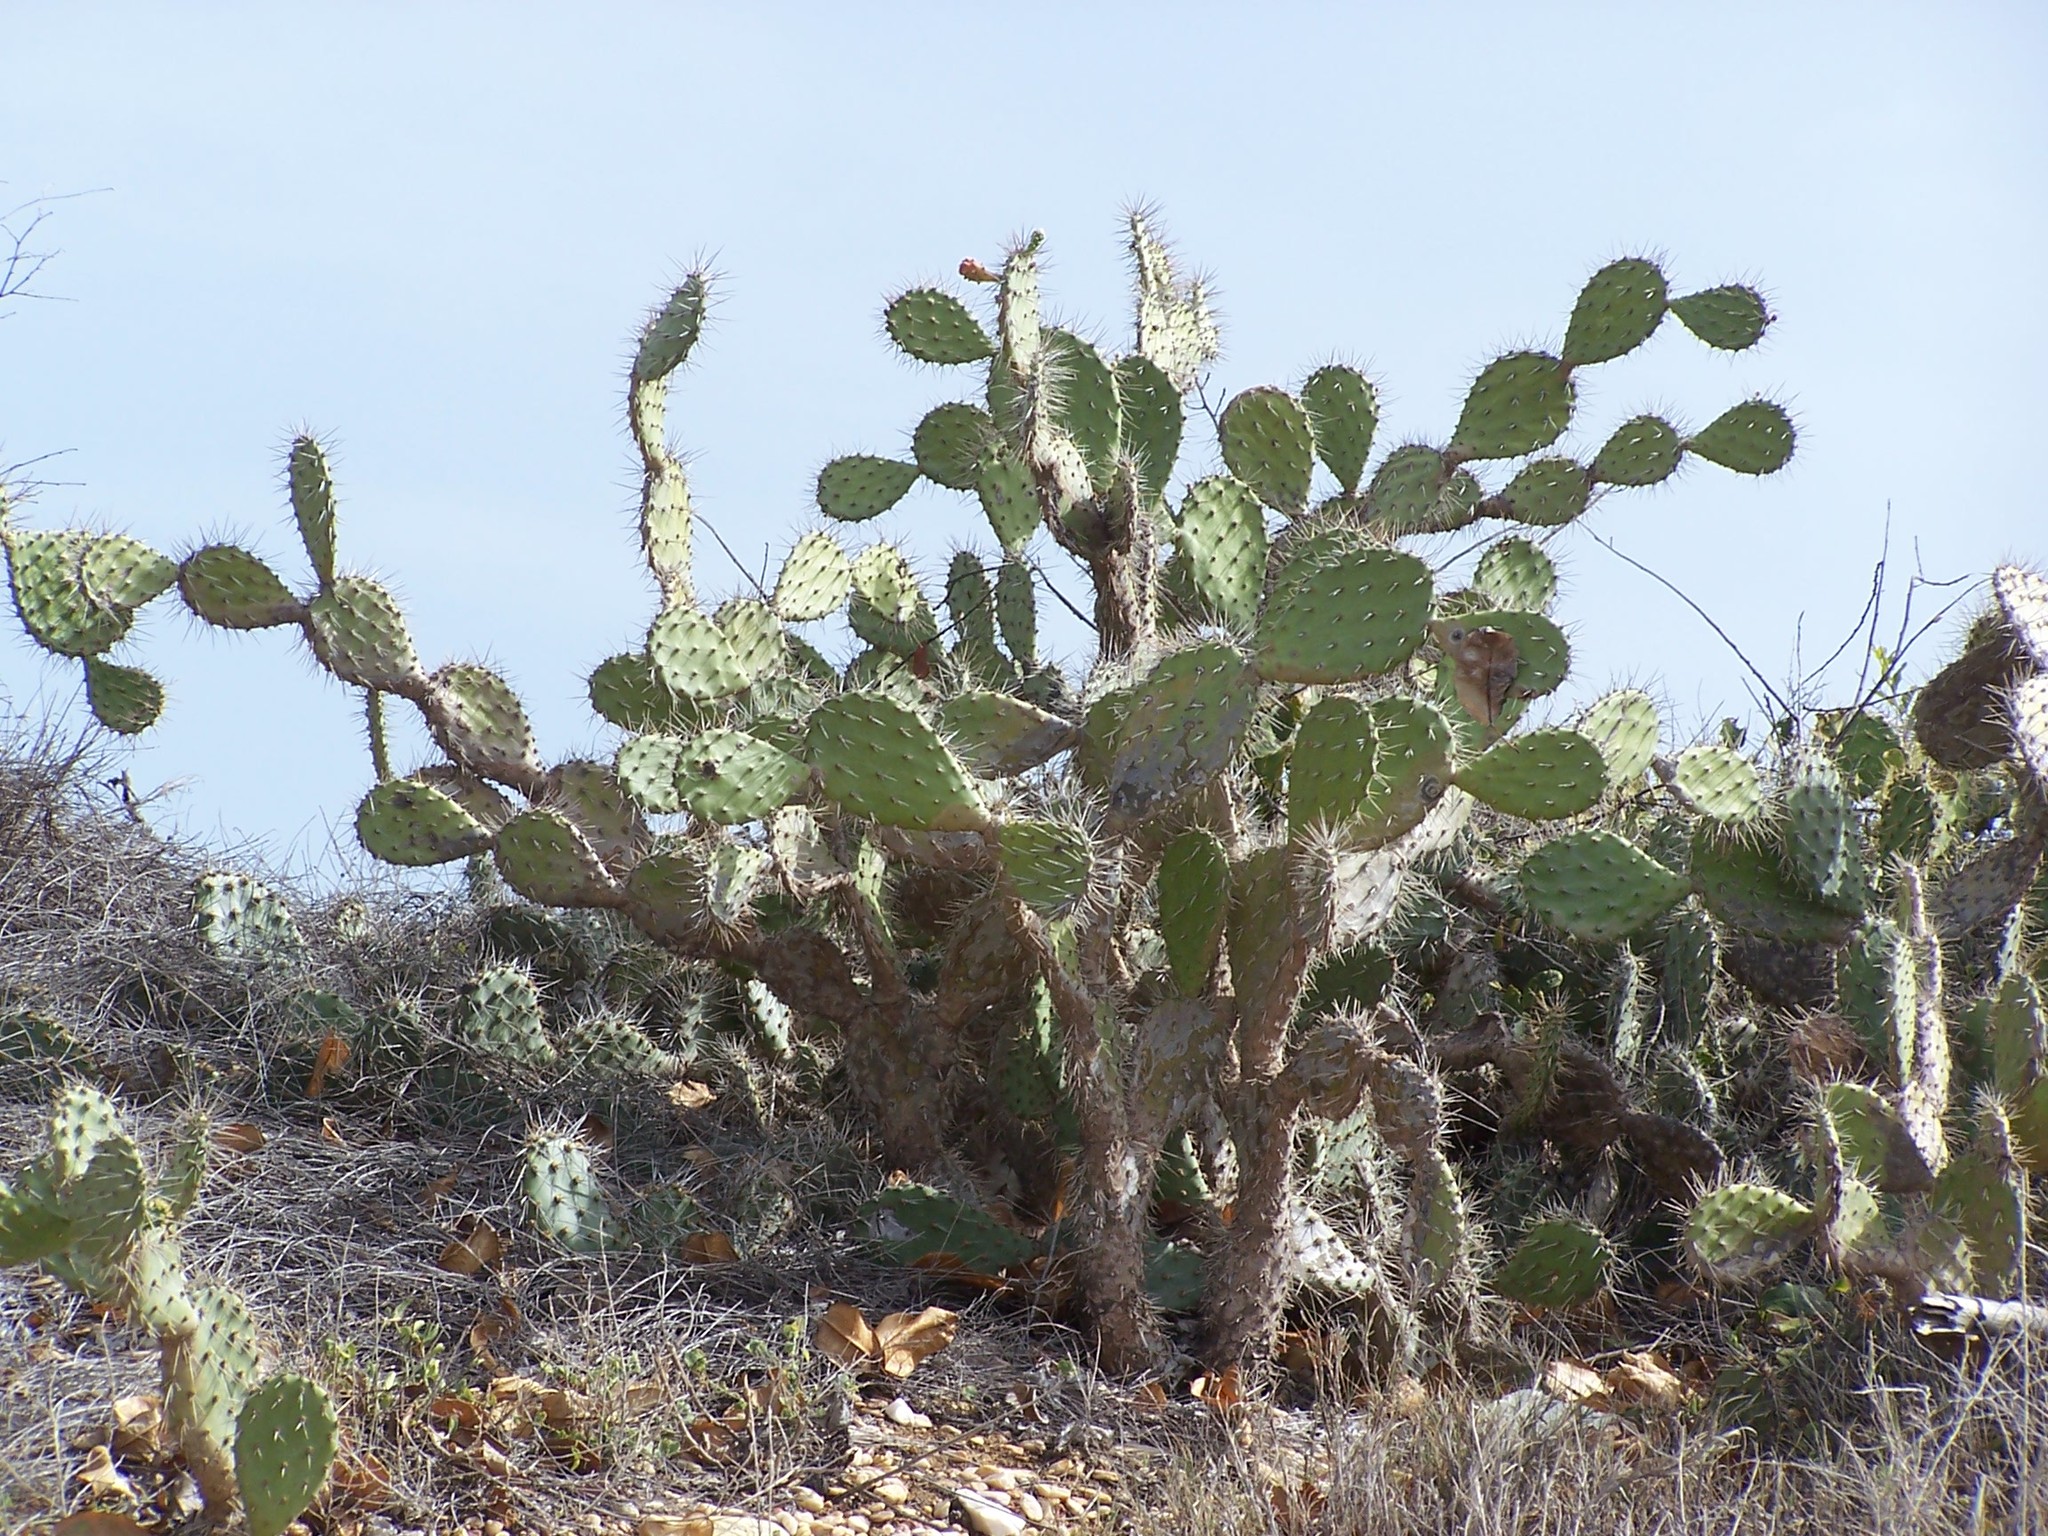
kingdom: Plantae
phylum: Tracheophyta
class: Magnoliopsida
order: Caryophyllales
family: Cactaceae
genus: Opuntia
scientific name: Opuntia caracassana
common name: Common prickly pear
